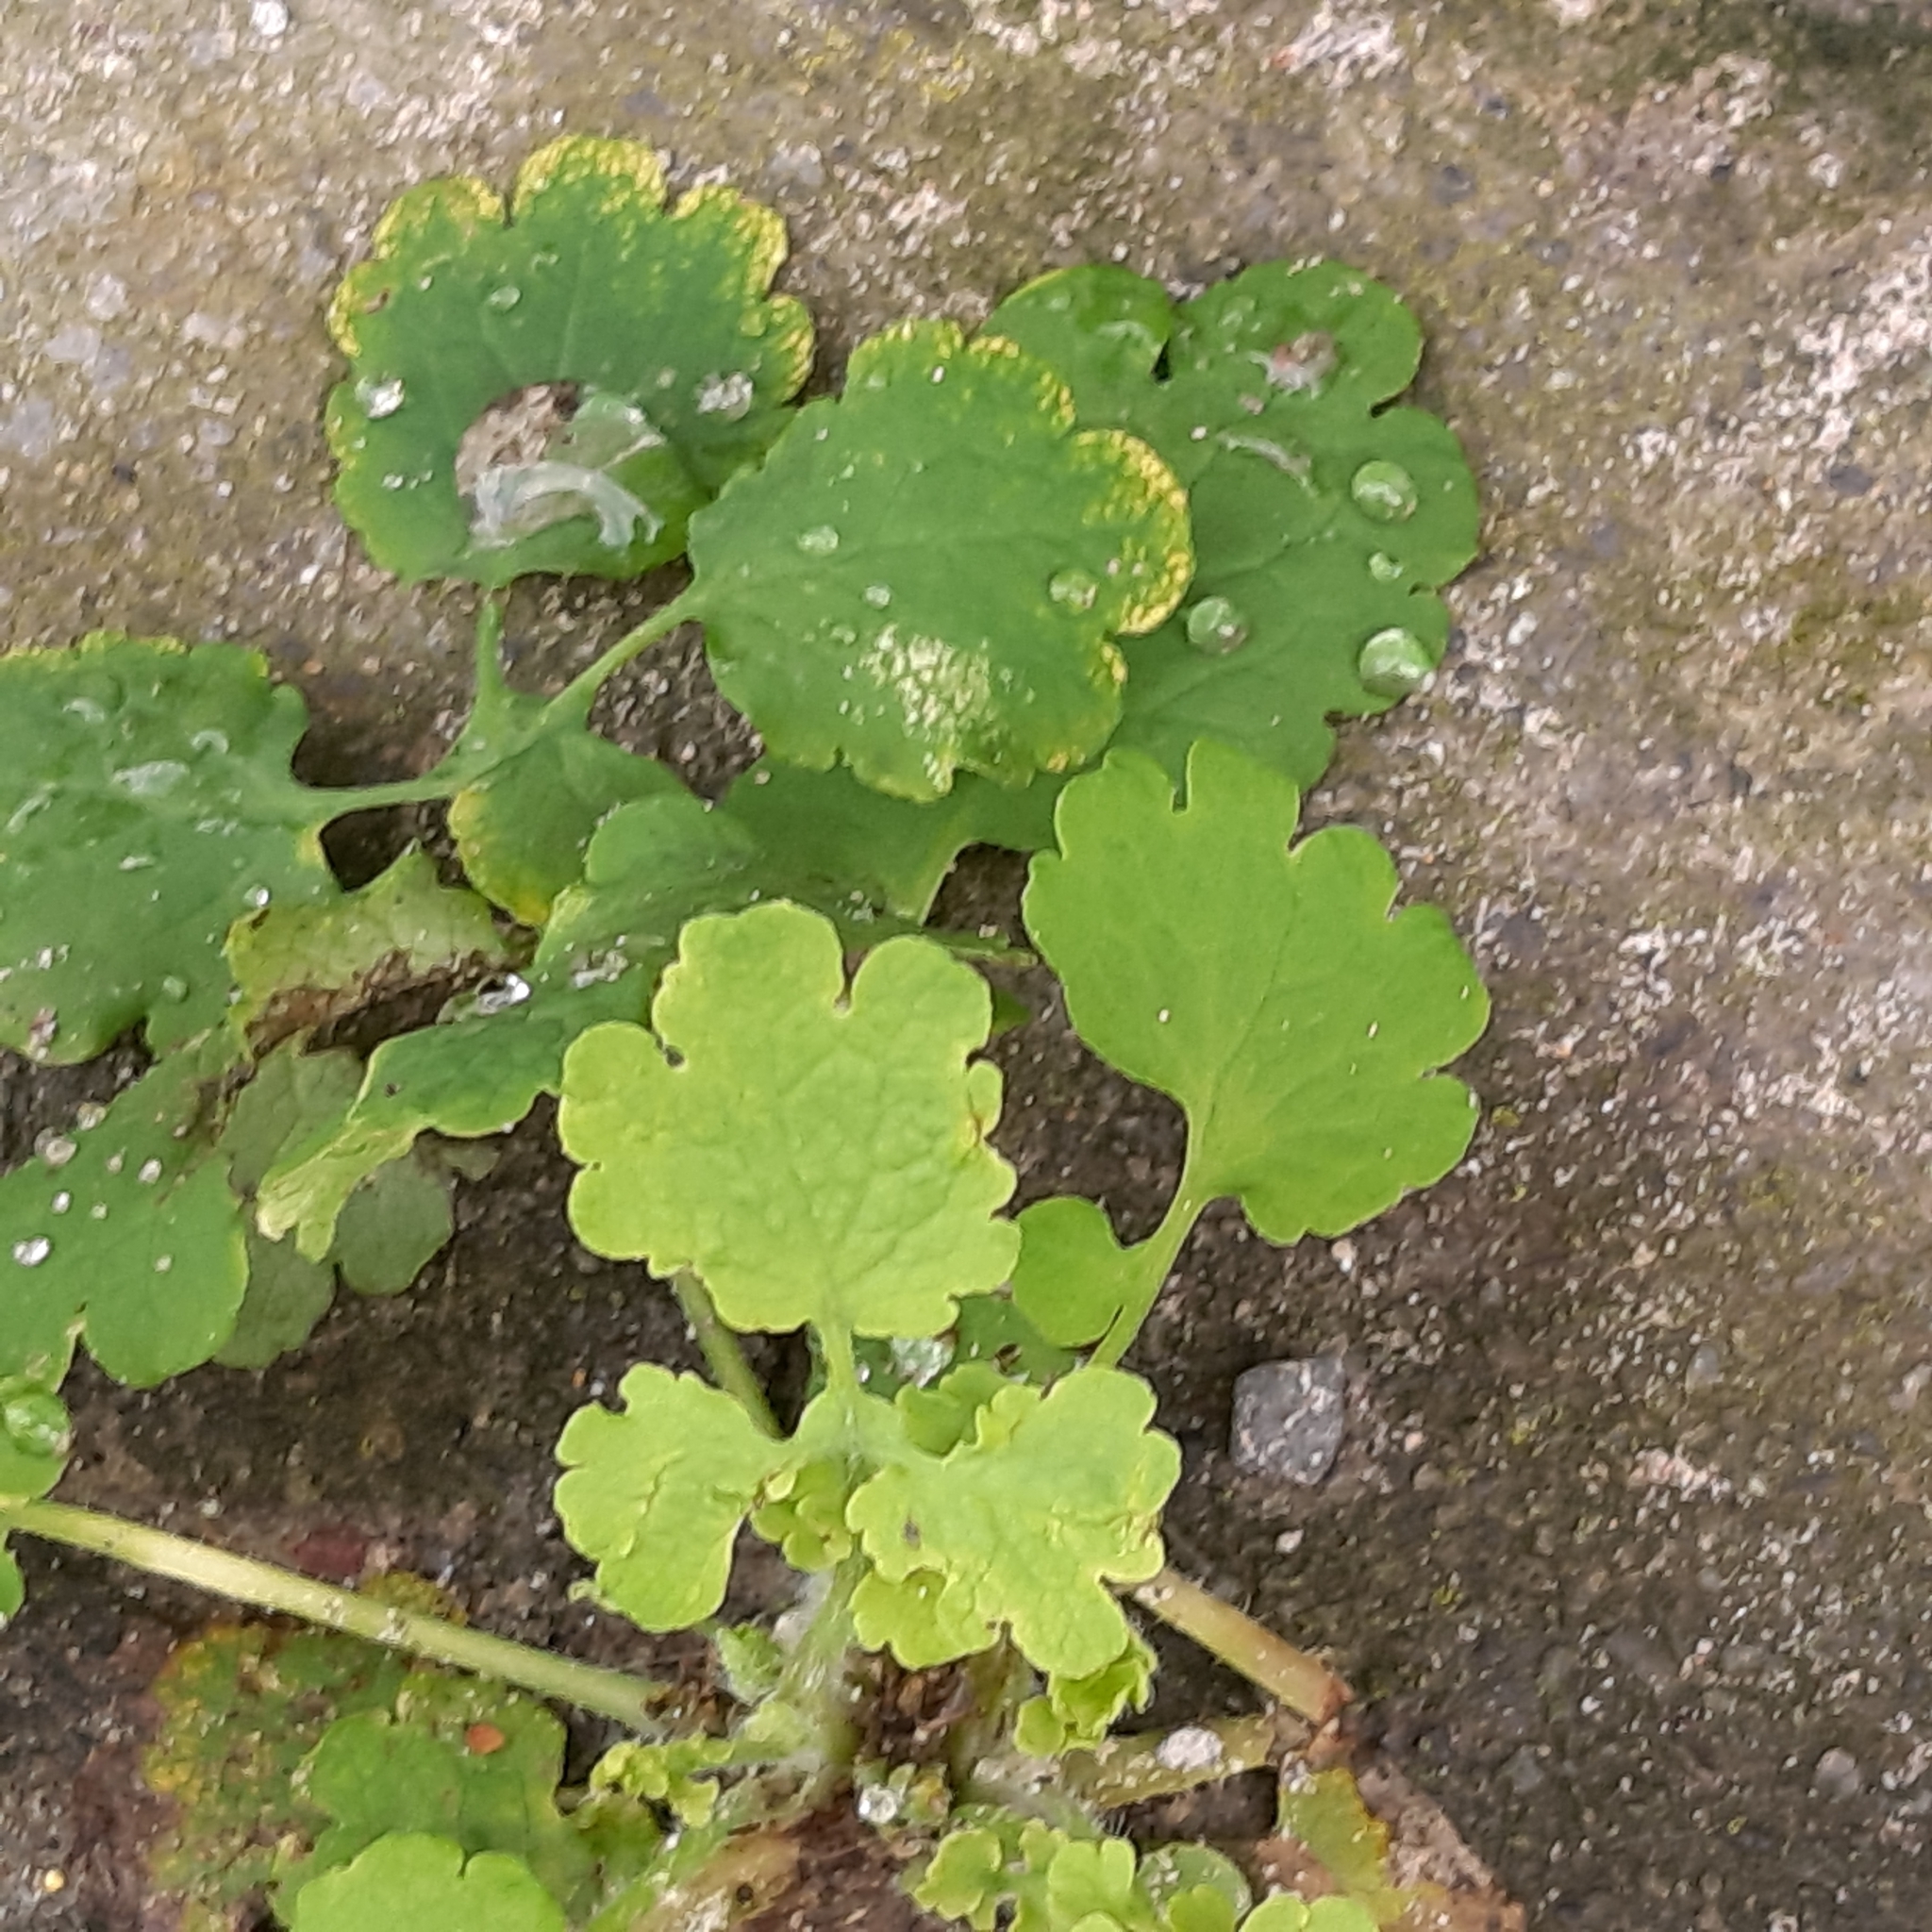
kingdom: Plantae
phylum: Tracheophyta
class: Magnoliopsida
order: Ranunculales
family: Papaveraceae
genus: Chelidonium
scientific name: Chelidonium majus
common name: Greater celandine
